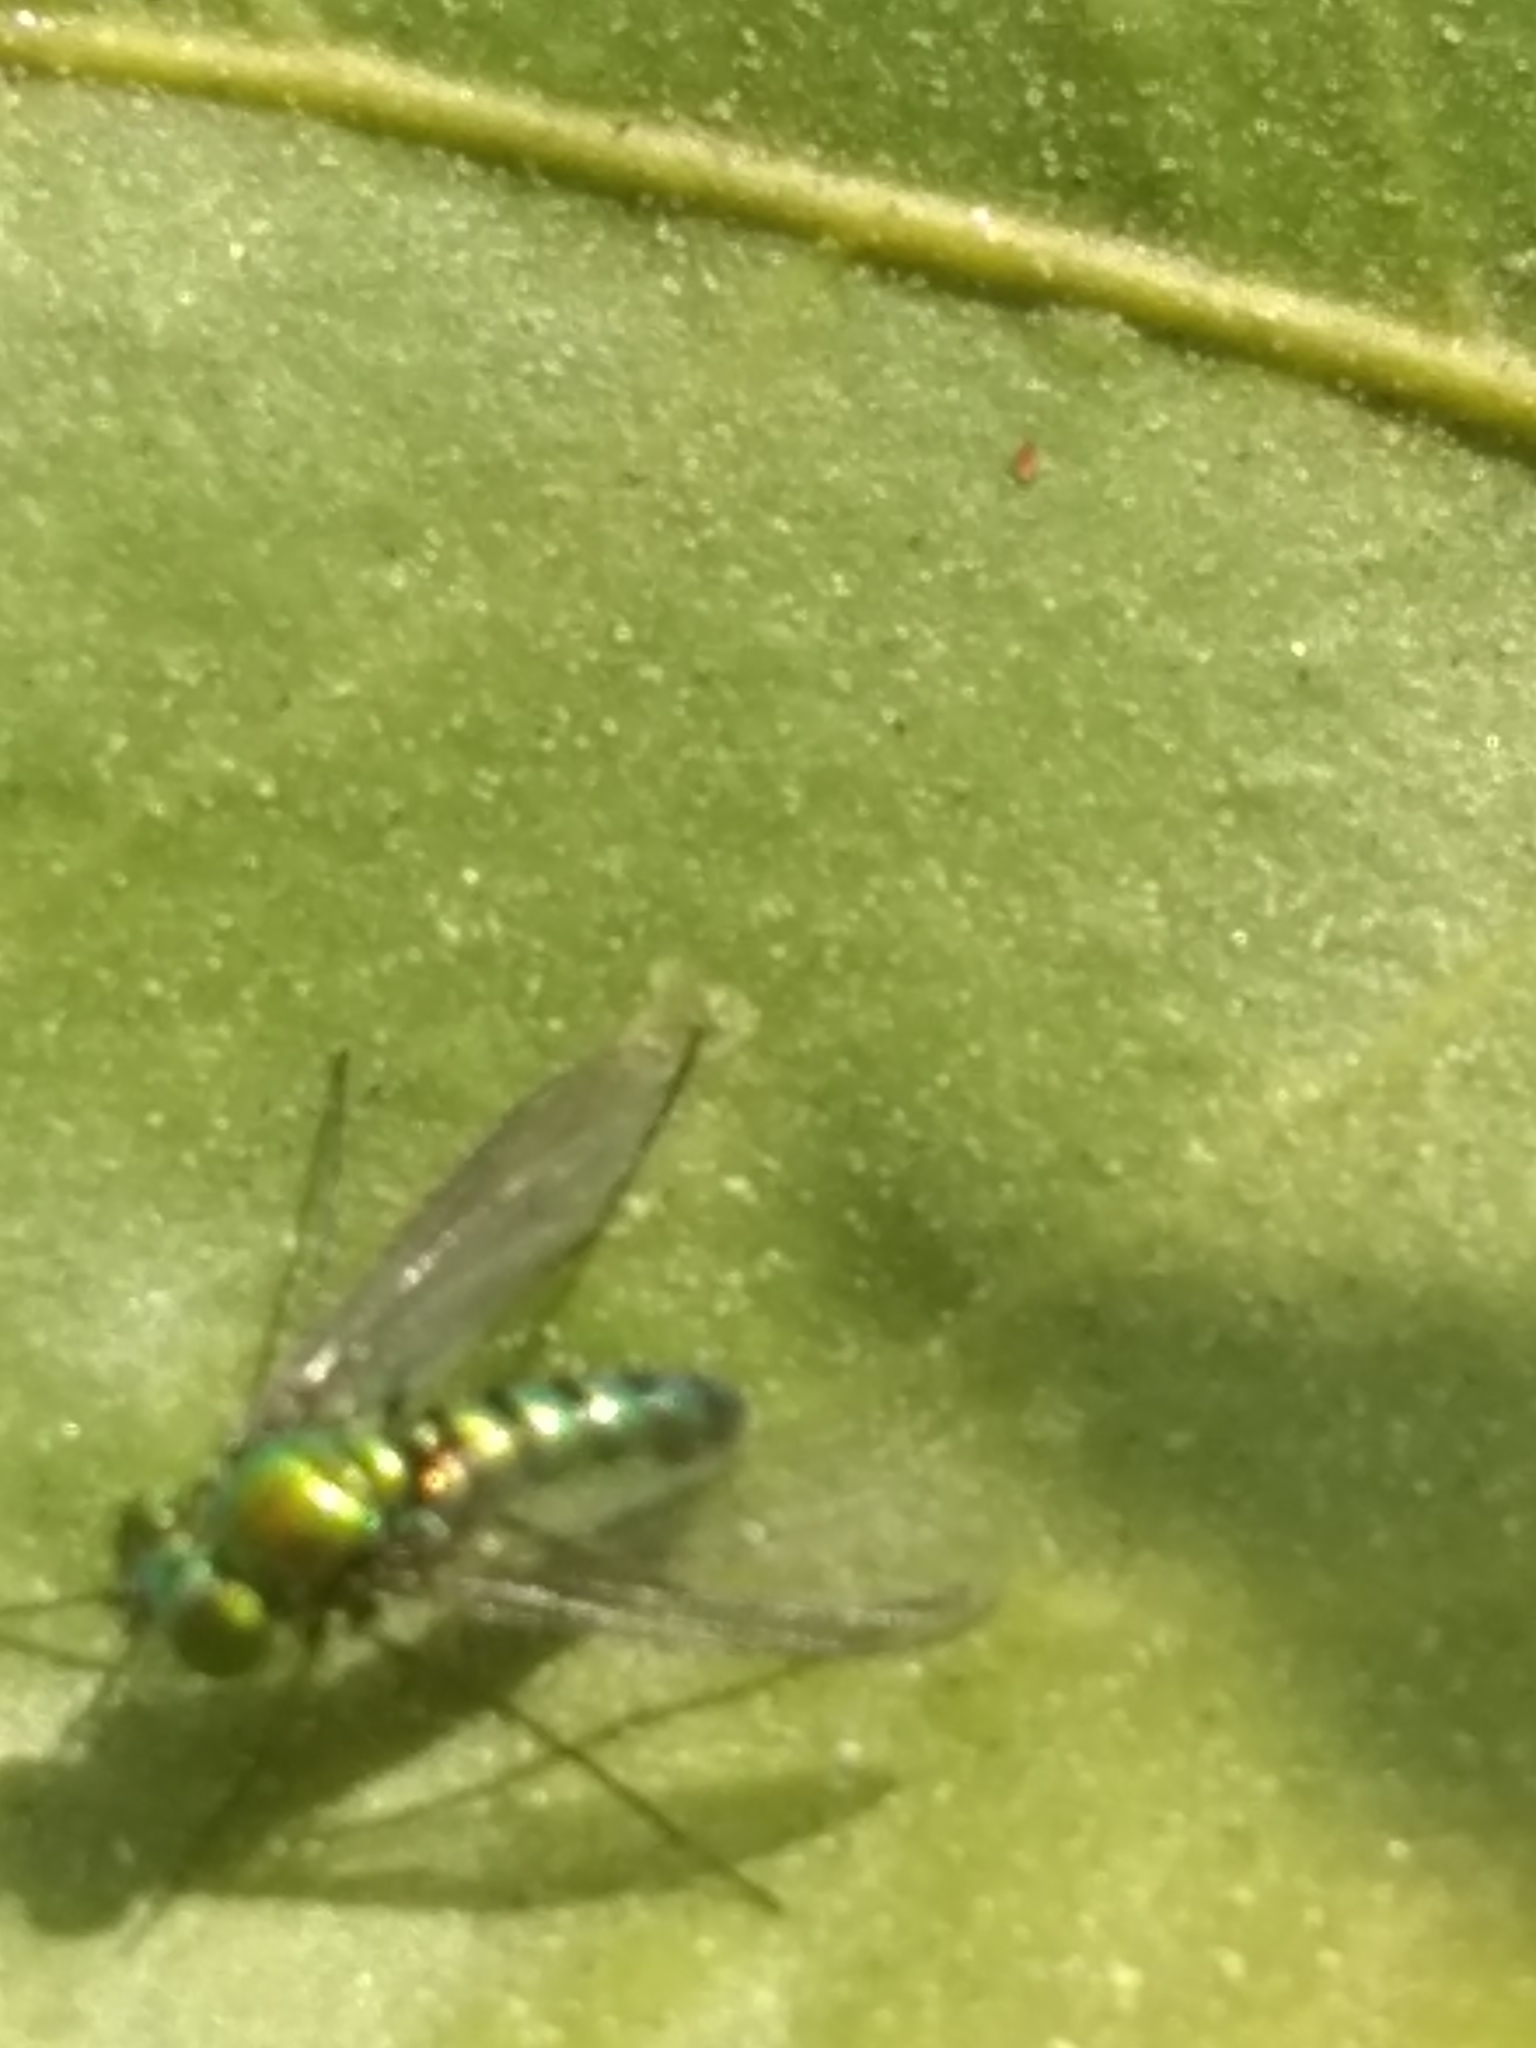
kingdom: Animalia
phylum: Arthropoda
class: Insecta
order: Diptera
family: Dolichopodidae
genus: Condylostylus
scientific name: Condylostylus longicornis
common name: Long-legged fly
